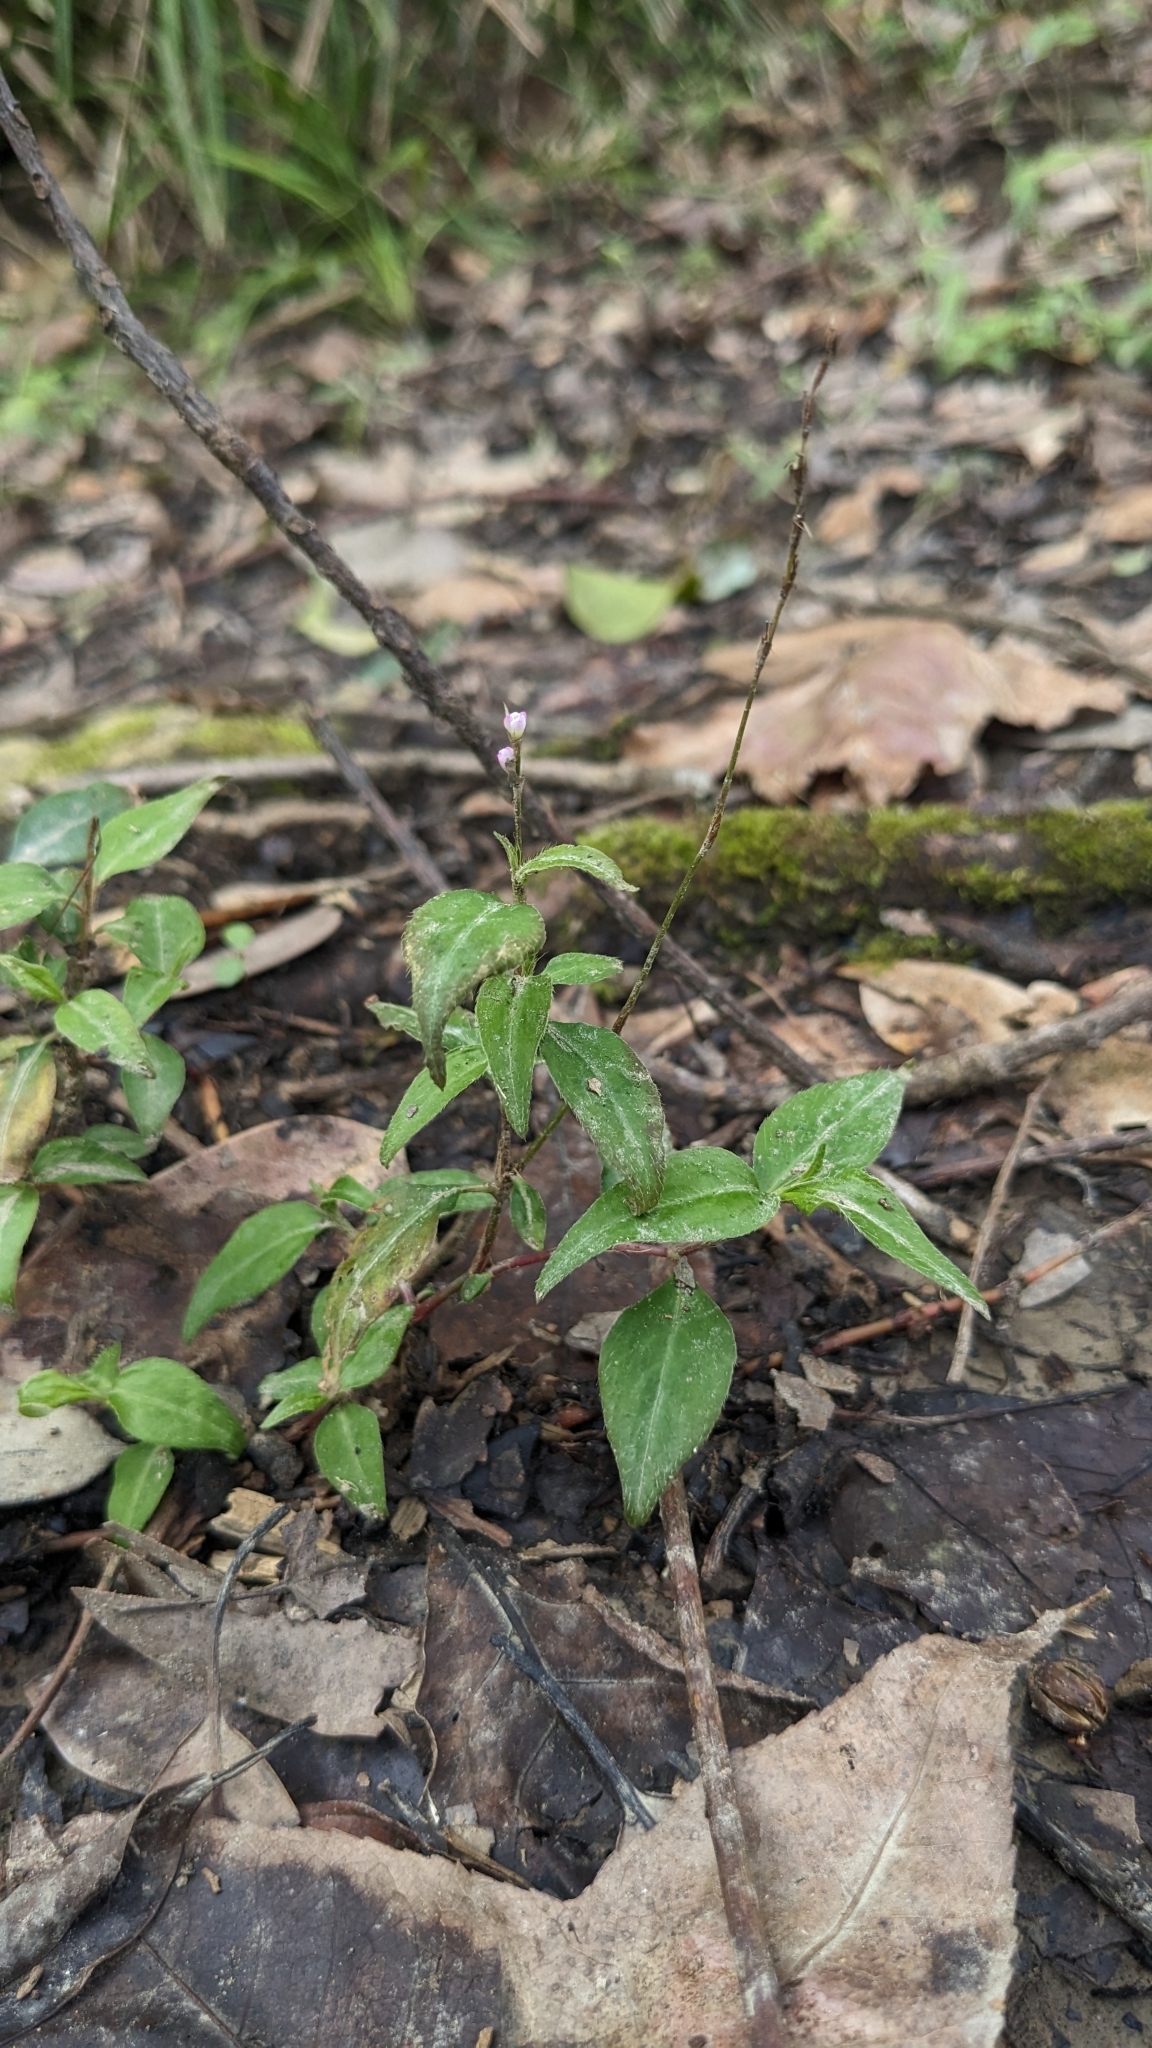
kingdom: Plantae
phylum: Tracheophyta
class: Magnoliopsida
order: Caryophyllales
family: Polygonaceae
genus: Persicaria
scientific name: Persicaria posumbu
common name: Oriental lady's thumb
